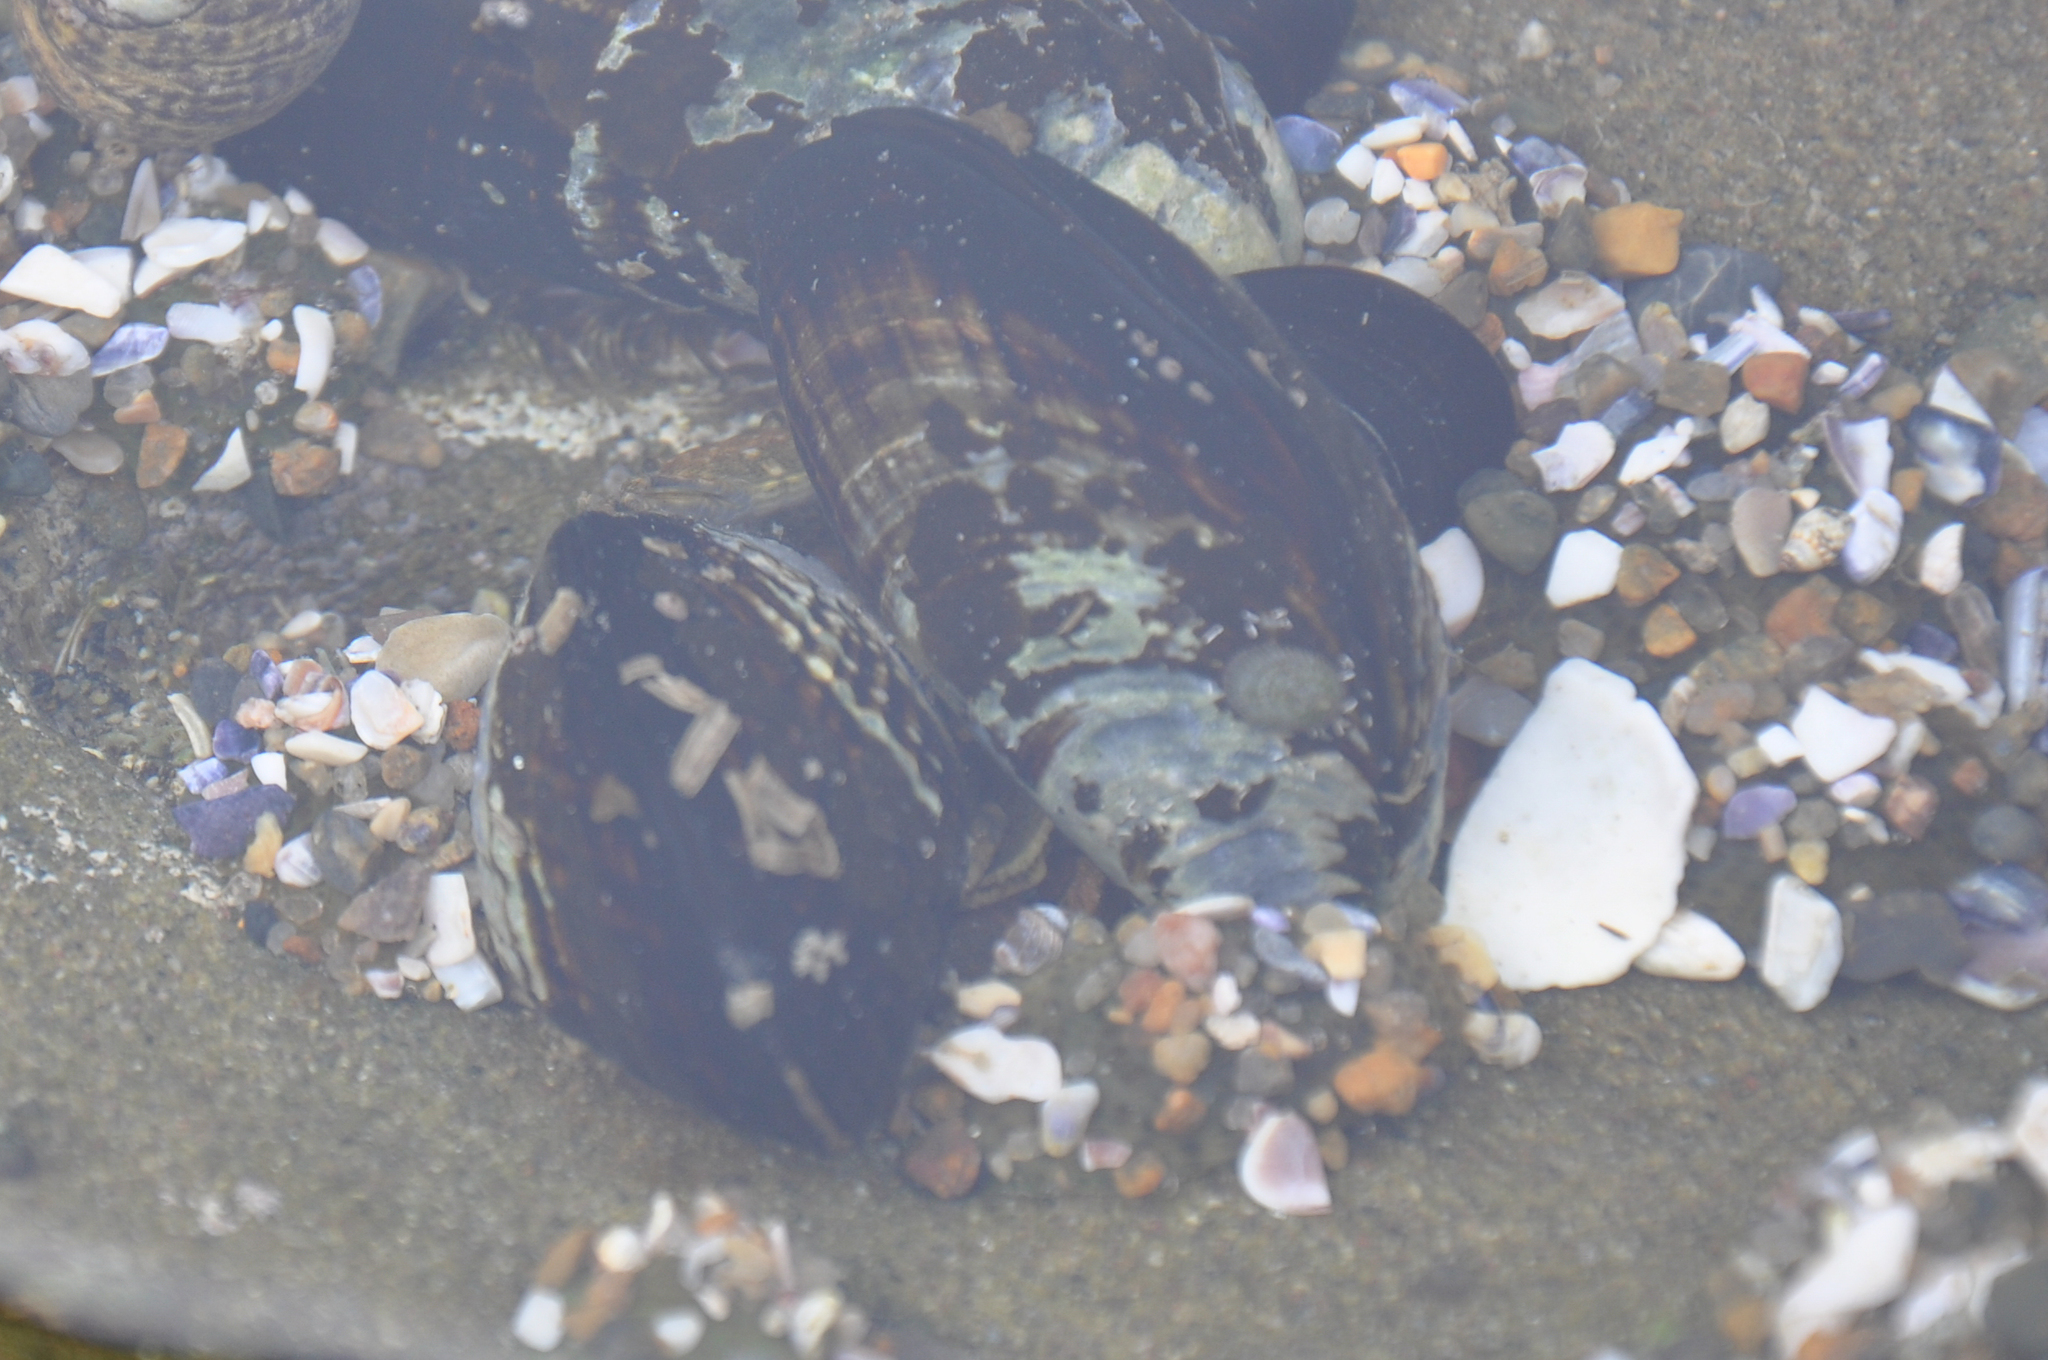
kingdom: Animalia
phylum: Mollusca
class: Bivalvia
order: Mytilida
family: Mytilidae
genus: Mytilus
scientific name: Mytilus californianus
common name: California mussel
